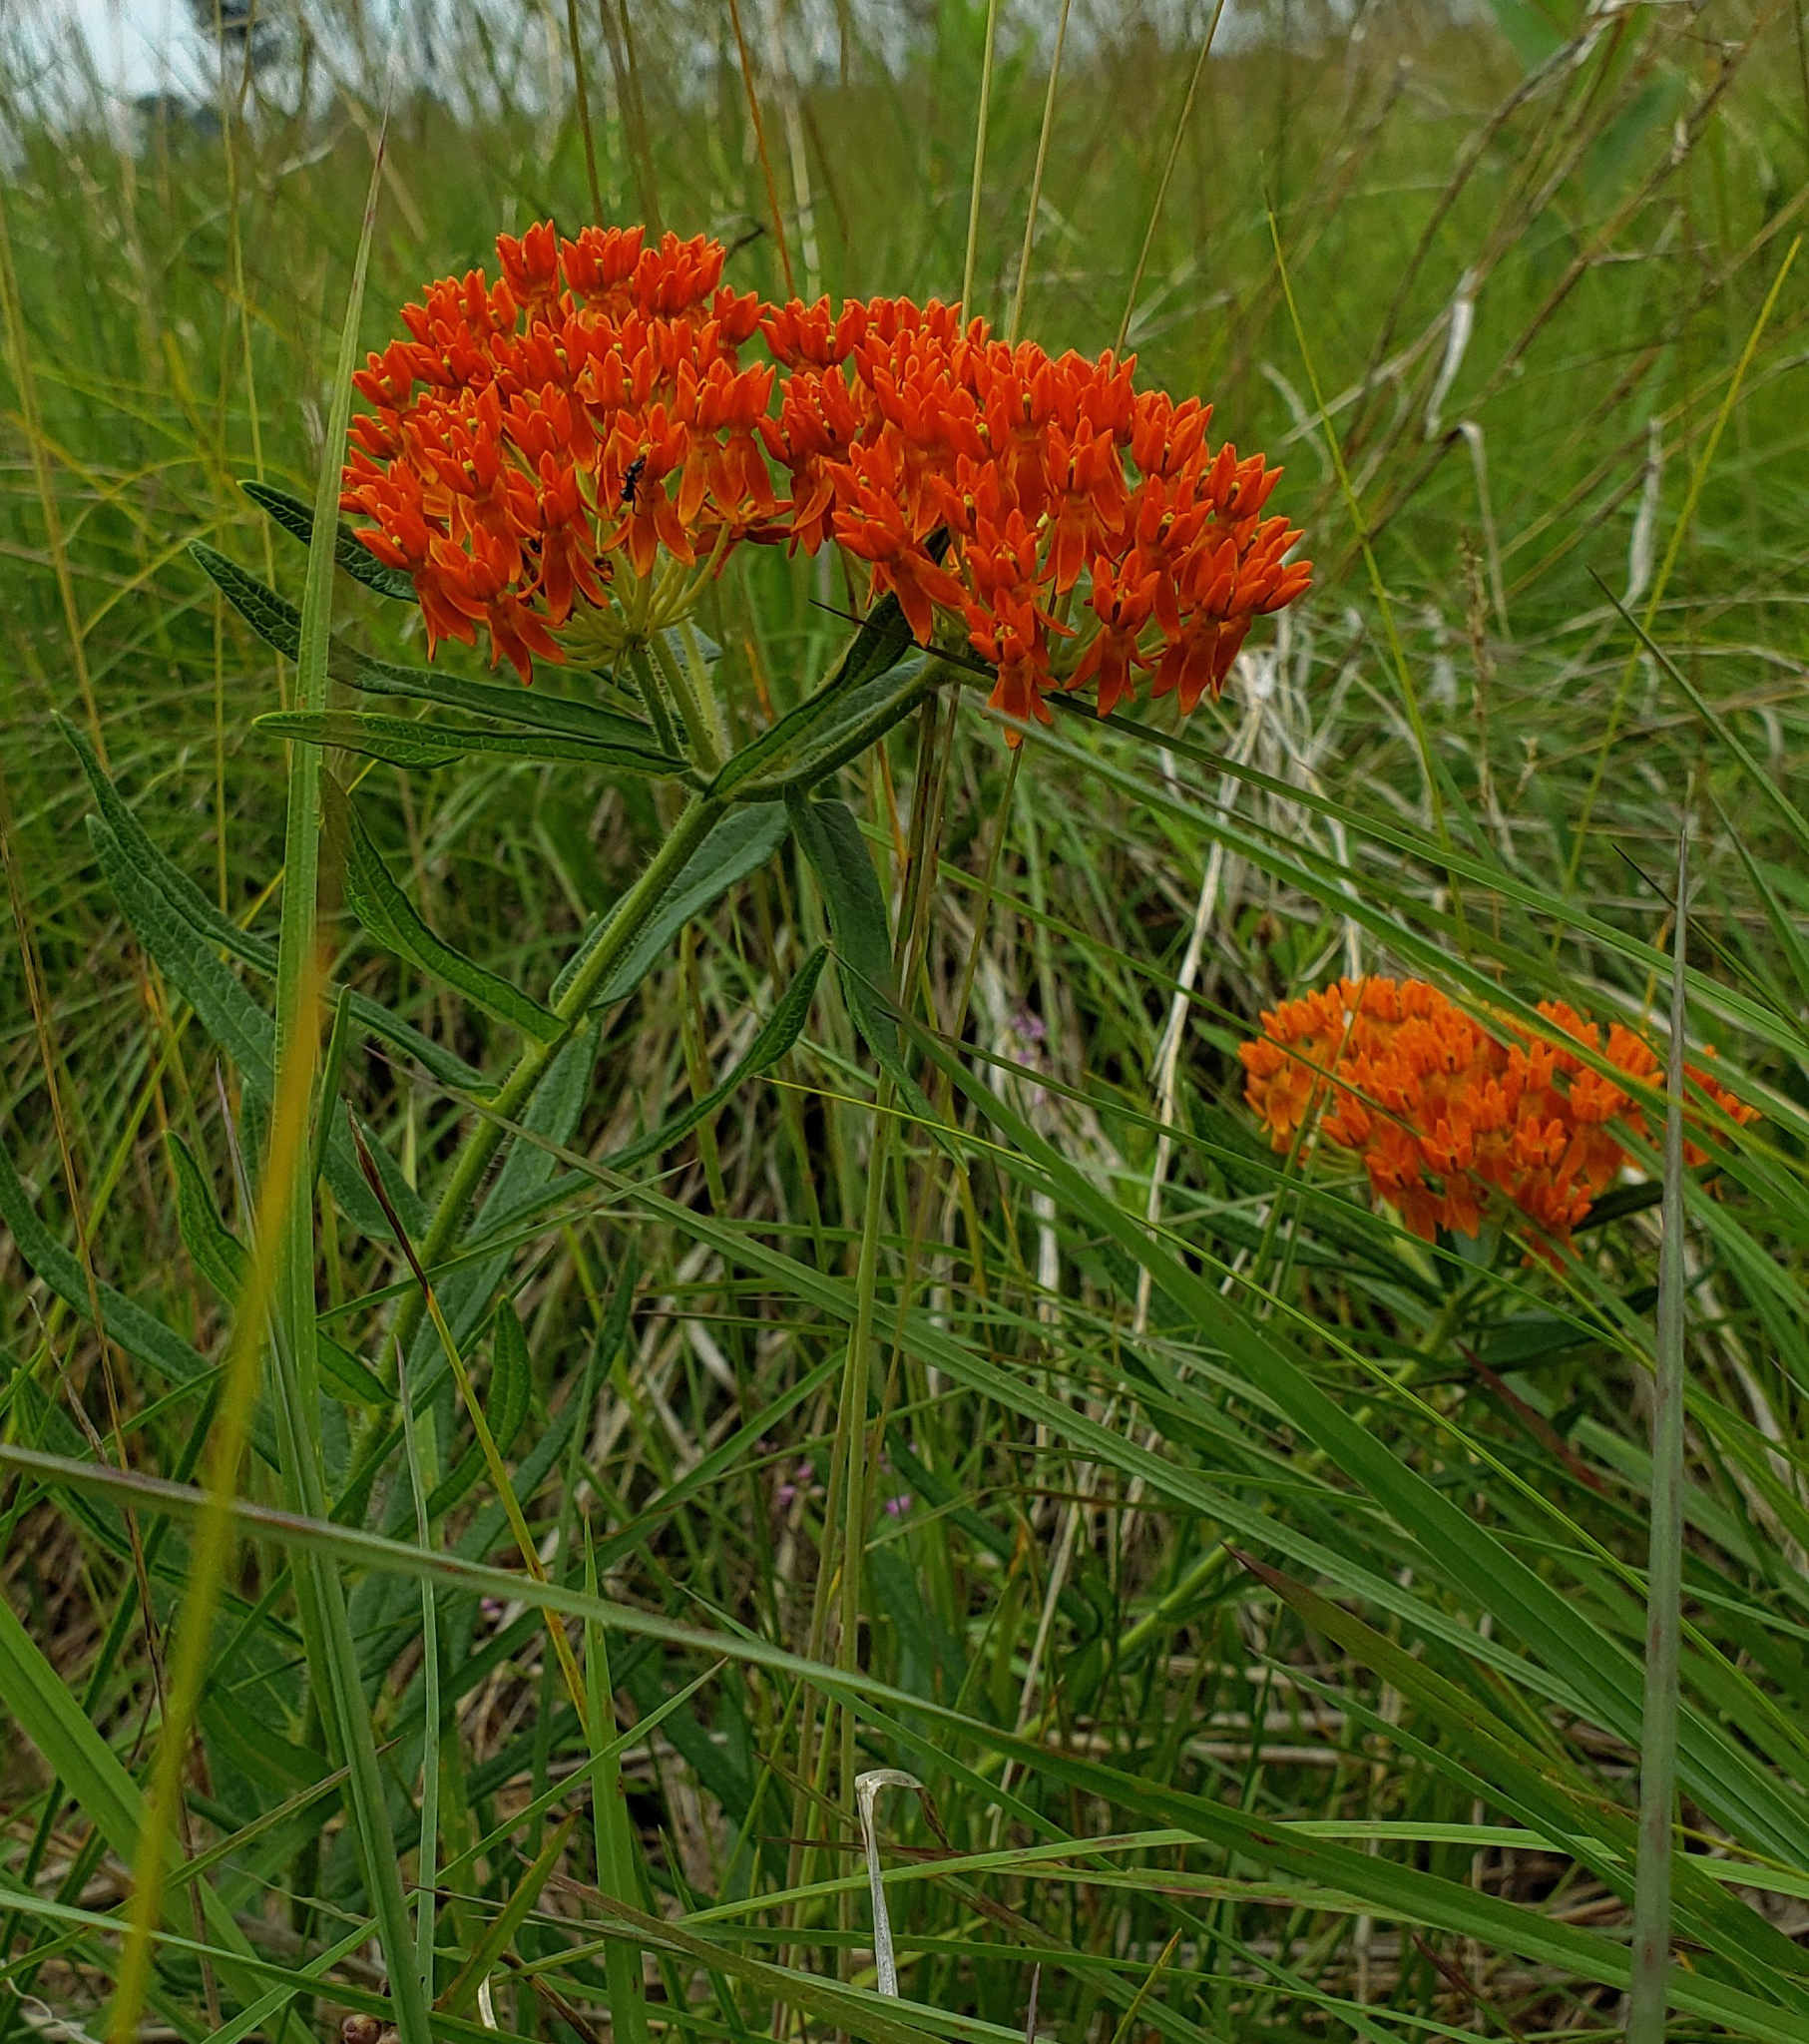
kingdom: Plantae
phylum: Tracheophyta
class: Magnoliopsida
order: Gentianales
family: Apocynaceae
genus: Asclepias
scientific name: Asclepias tuberosa
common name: Butterfly milkweed
